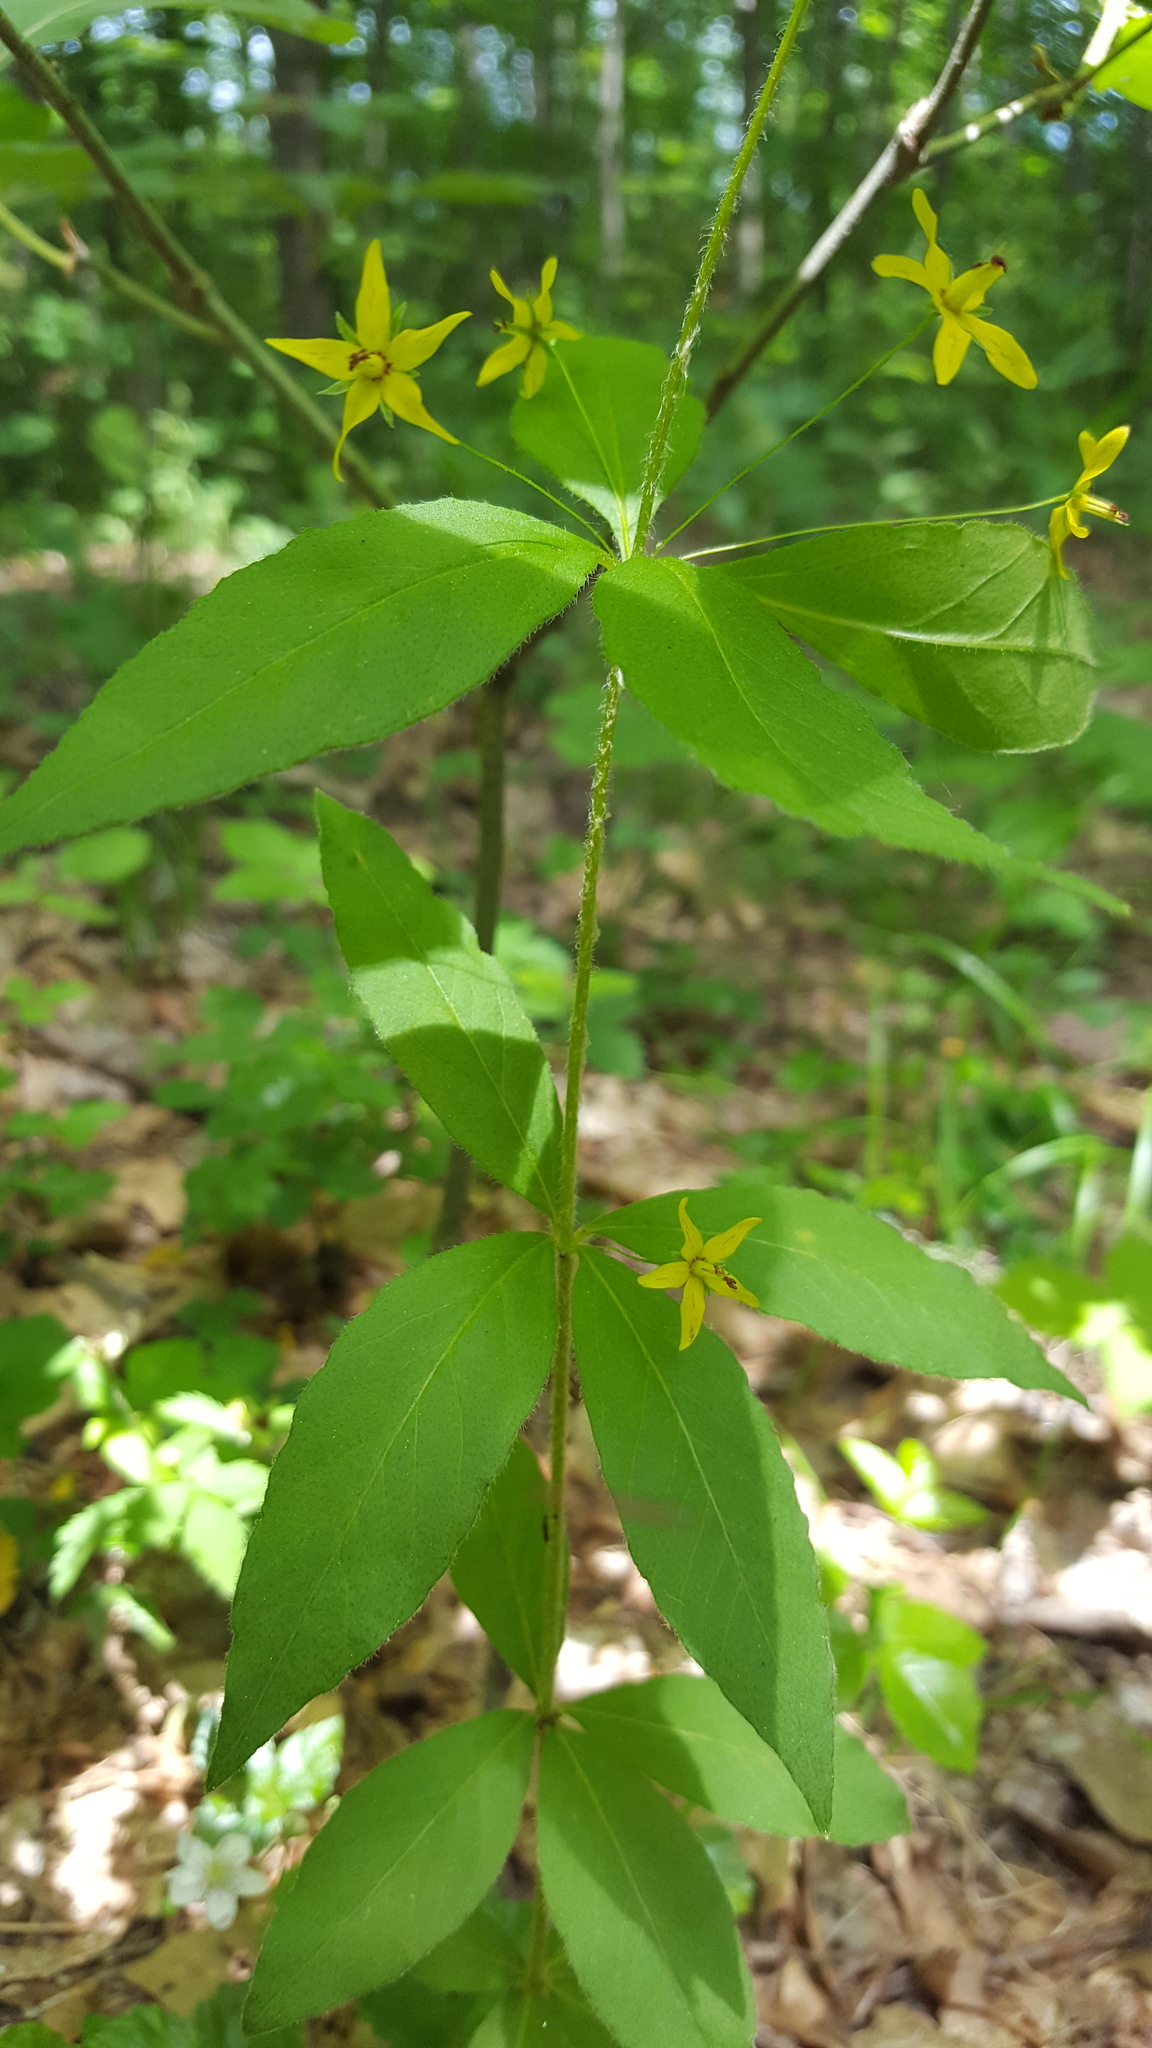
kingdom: Plantae
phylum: Tracheophyta
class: Magnoliopsida
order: Ericales
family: Primulaceae
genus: Lysimachia
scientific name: Lysimachia quadrifolia
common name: Whorled loosestrife
